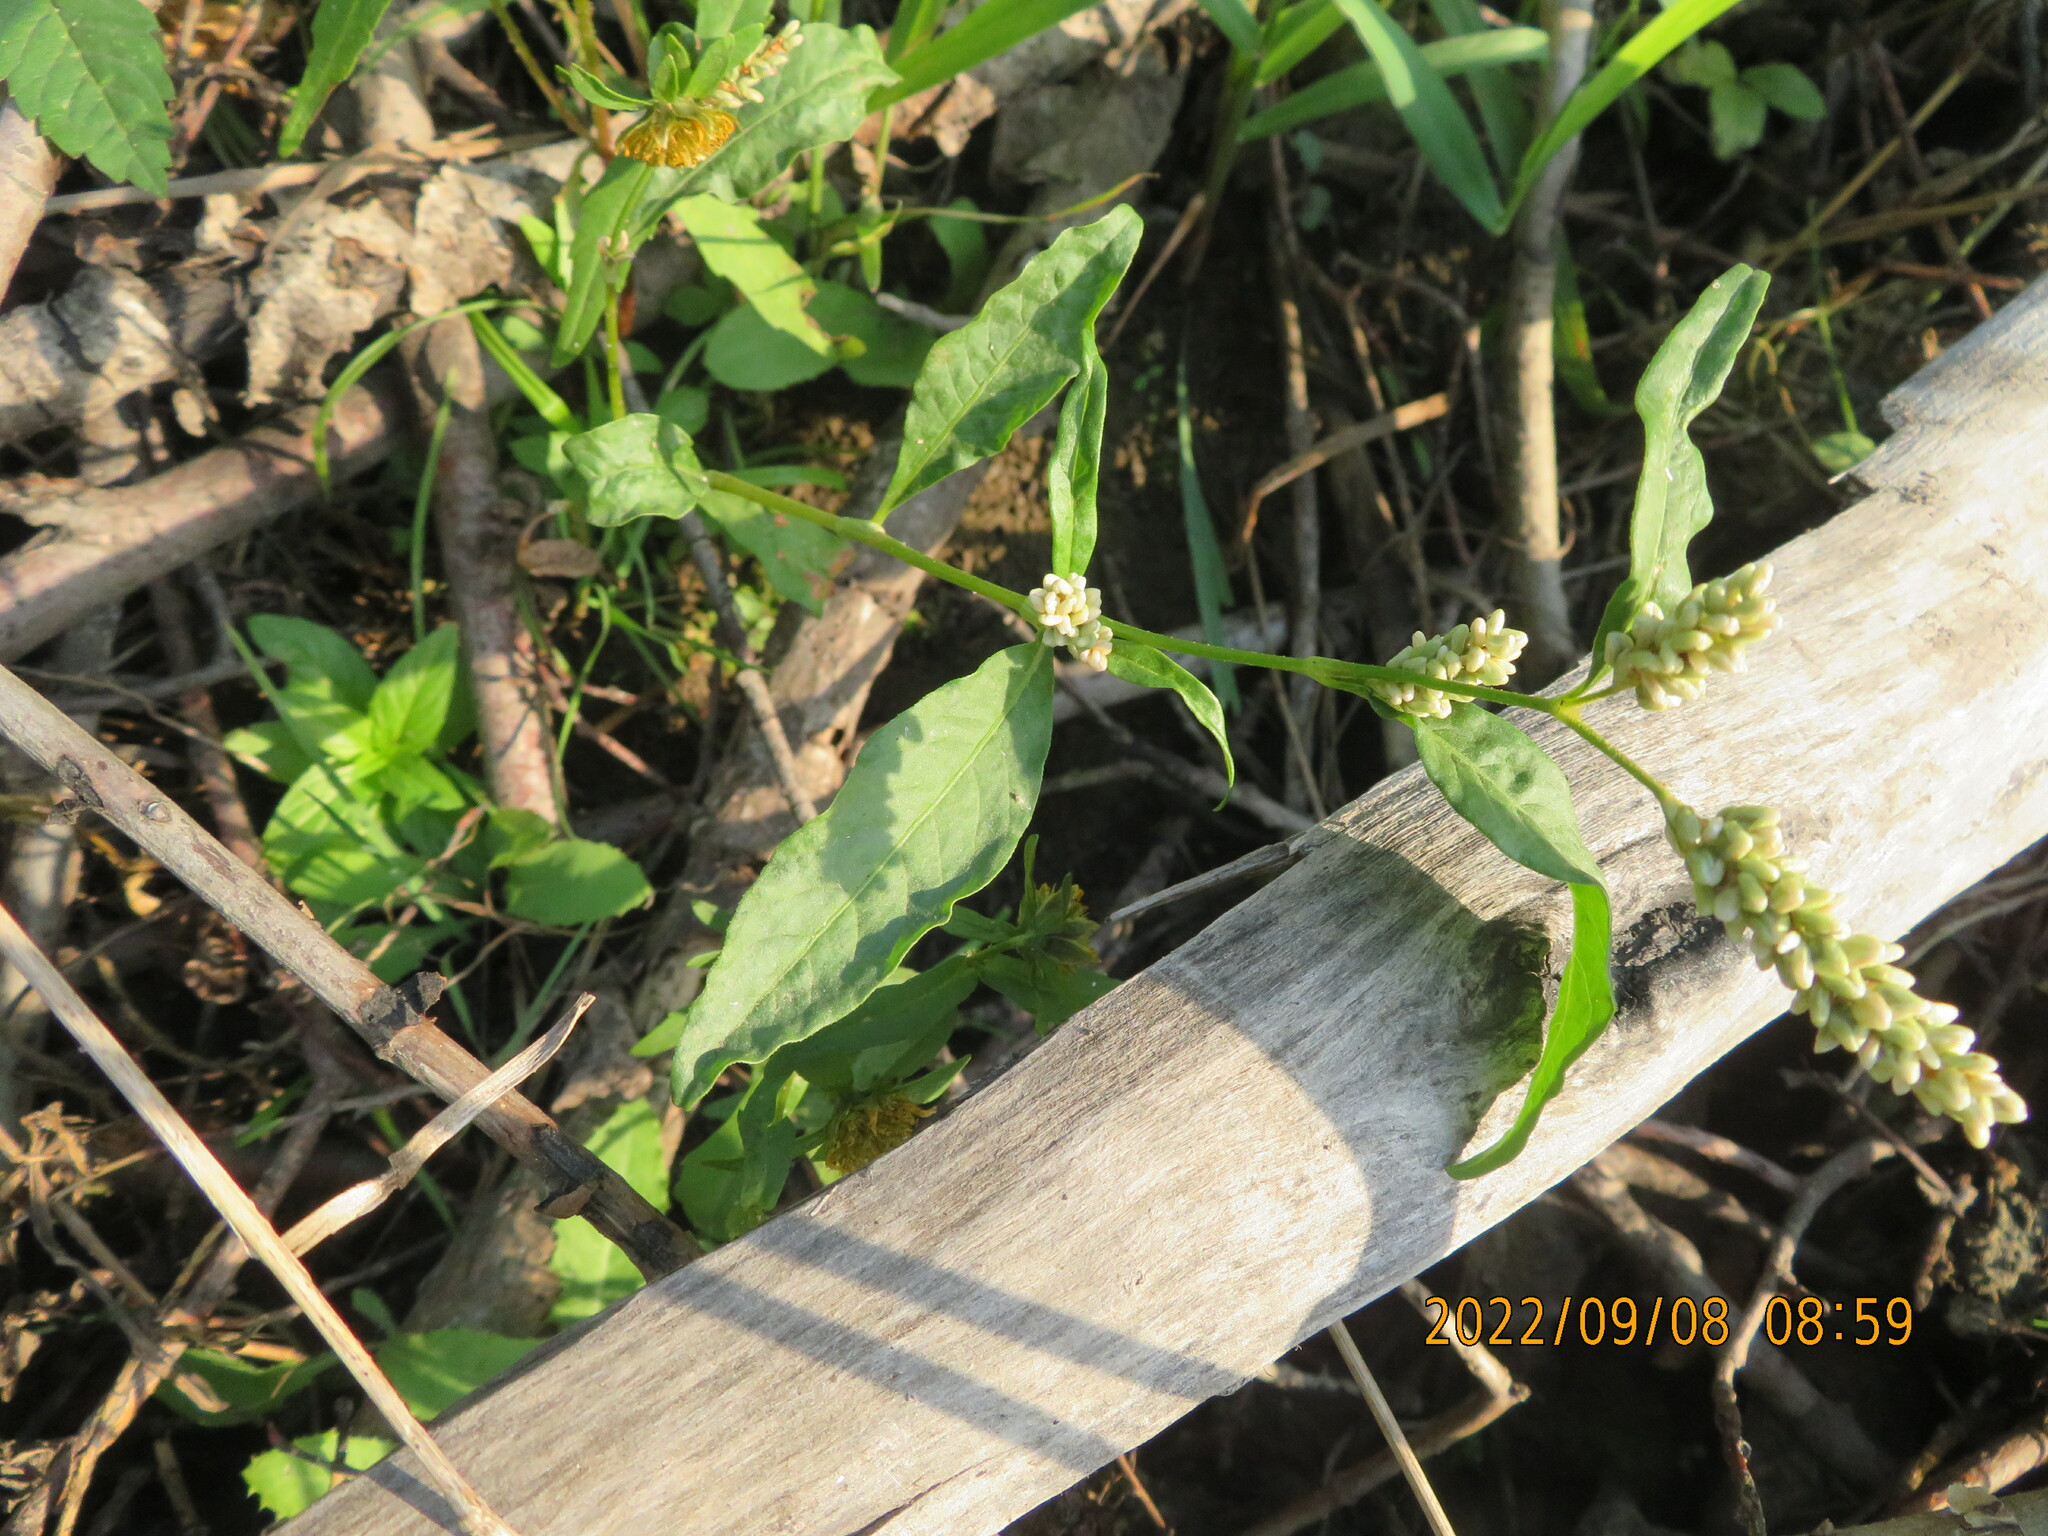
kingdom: Plantae
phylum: Tracheophyta
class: Magnoliopsida
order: Caryophyllales
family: Polygonaceae
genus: Persicaria
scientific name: Persicaria lapathifolia
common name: Curlytop knotweed
